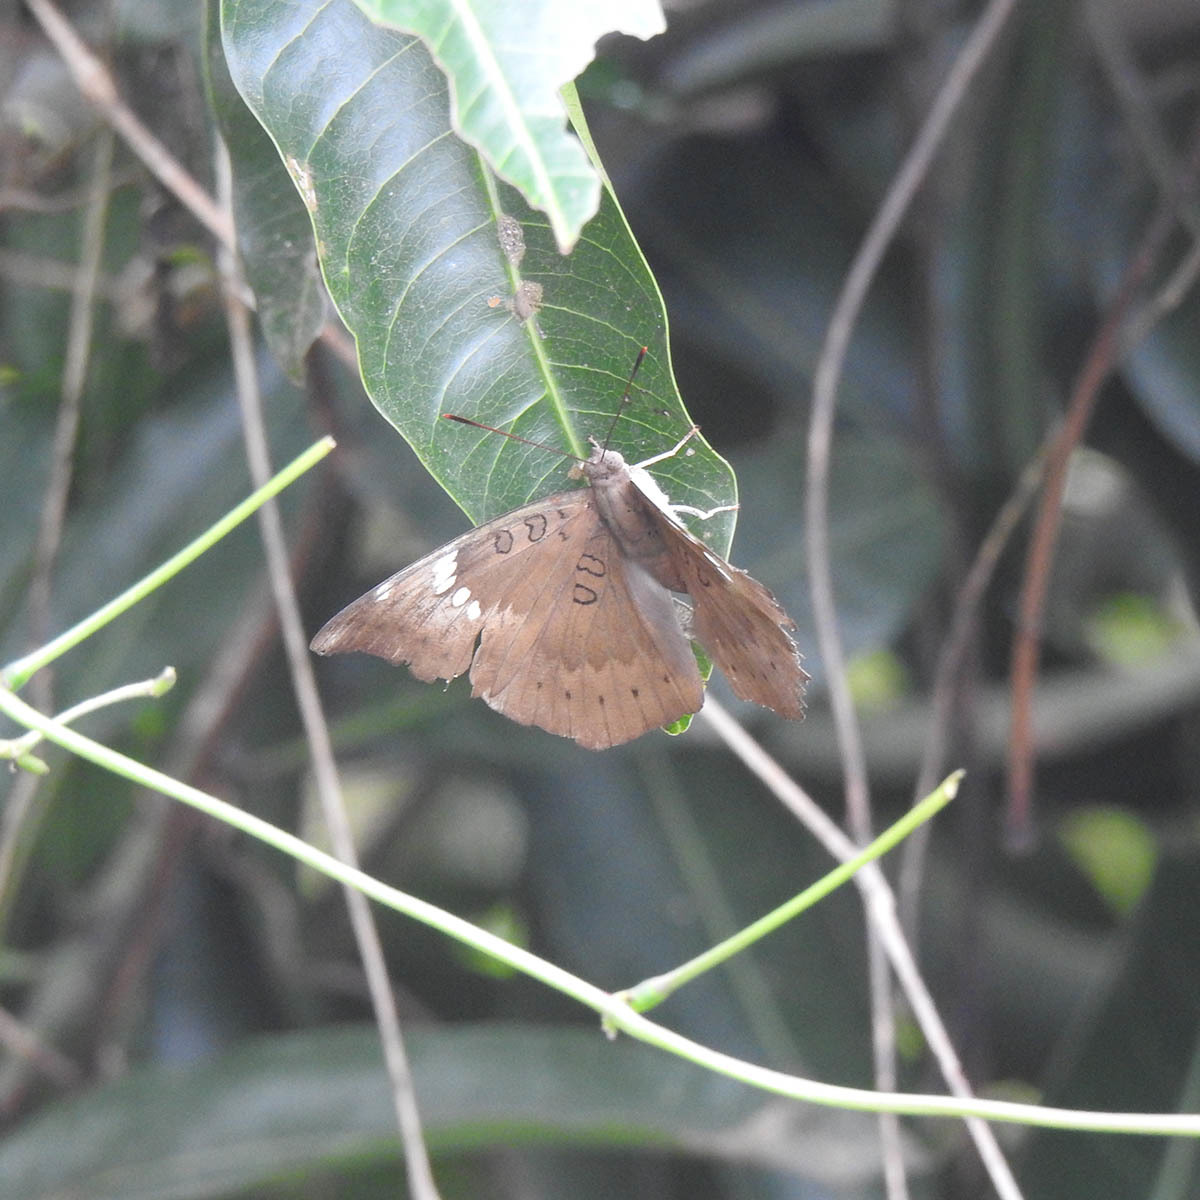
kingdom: Animalia
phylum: Arthropoda
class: Insecta
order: Lepidoptera
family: Nymphalidae
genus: Euthalia
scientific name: Euthalia aconthea
